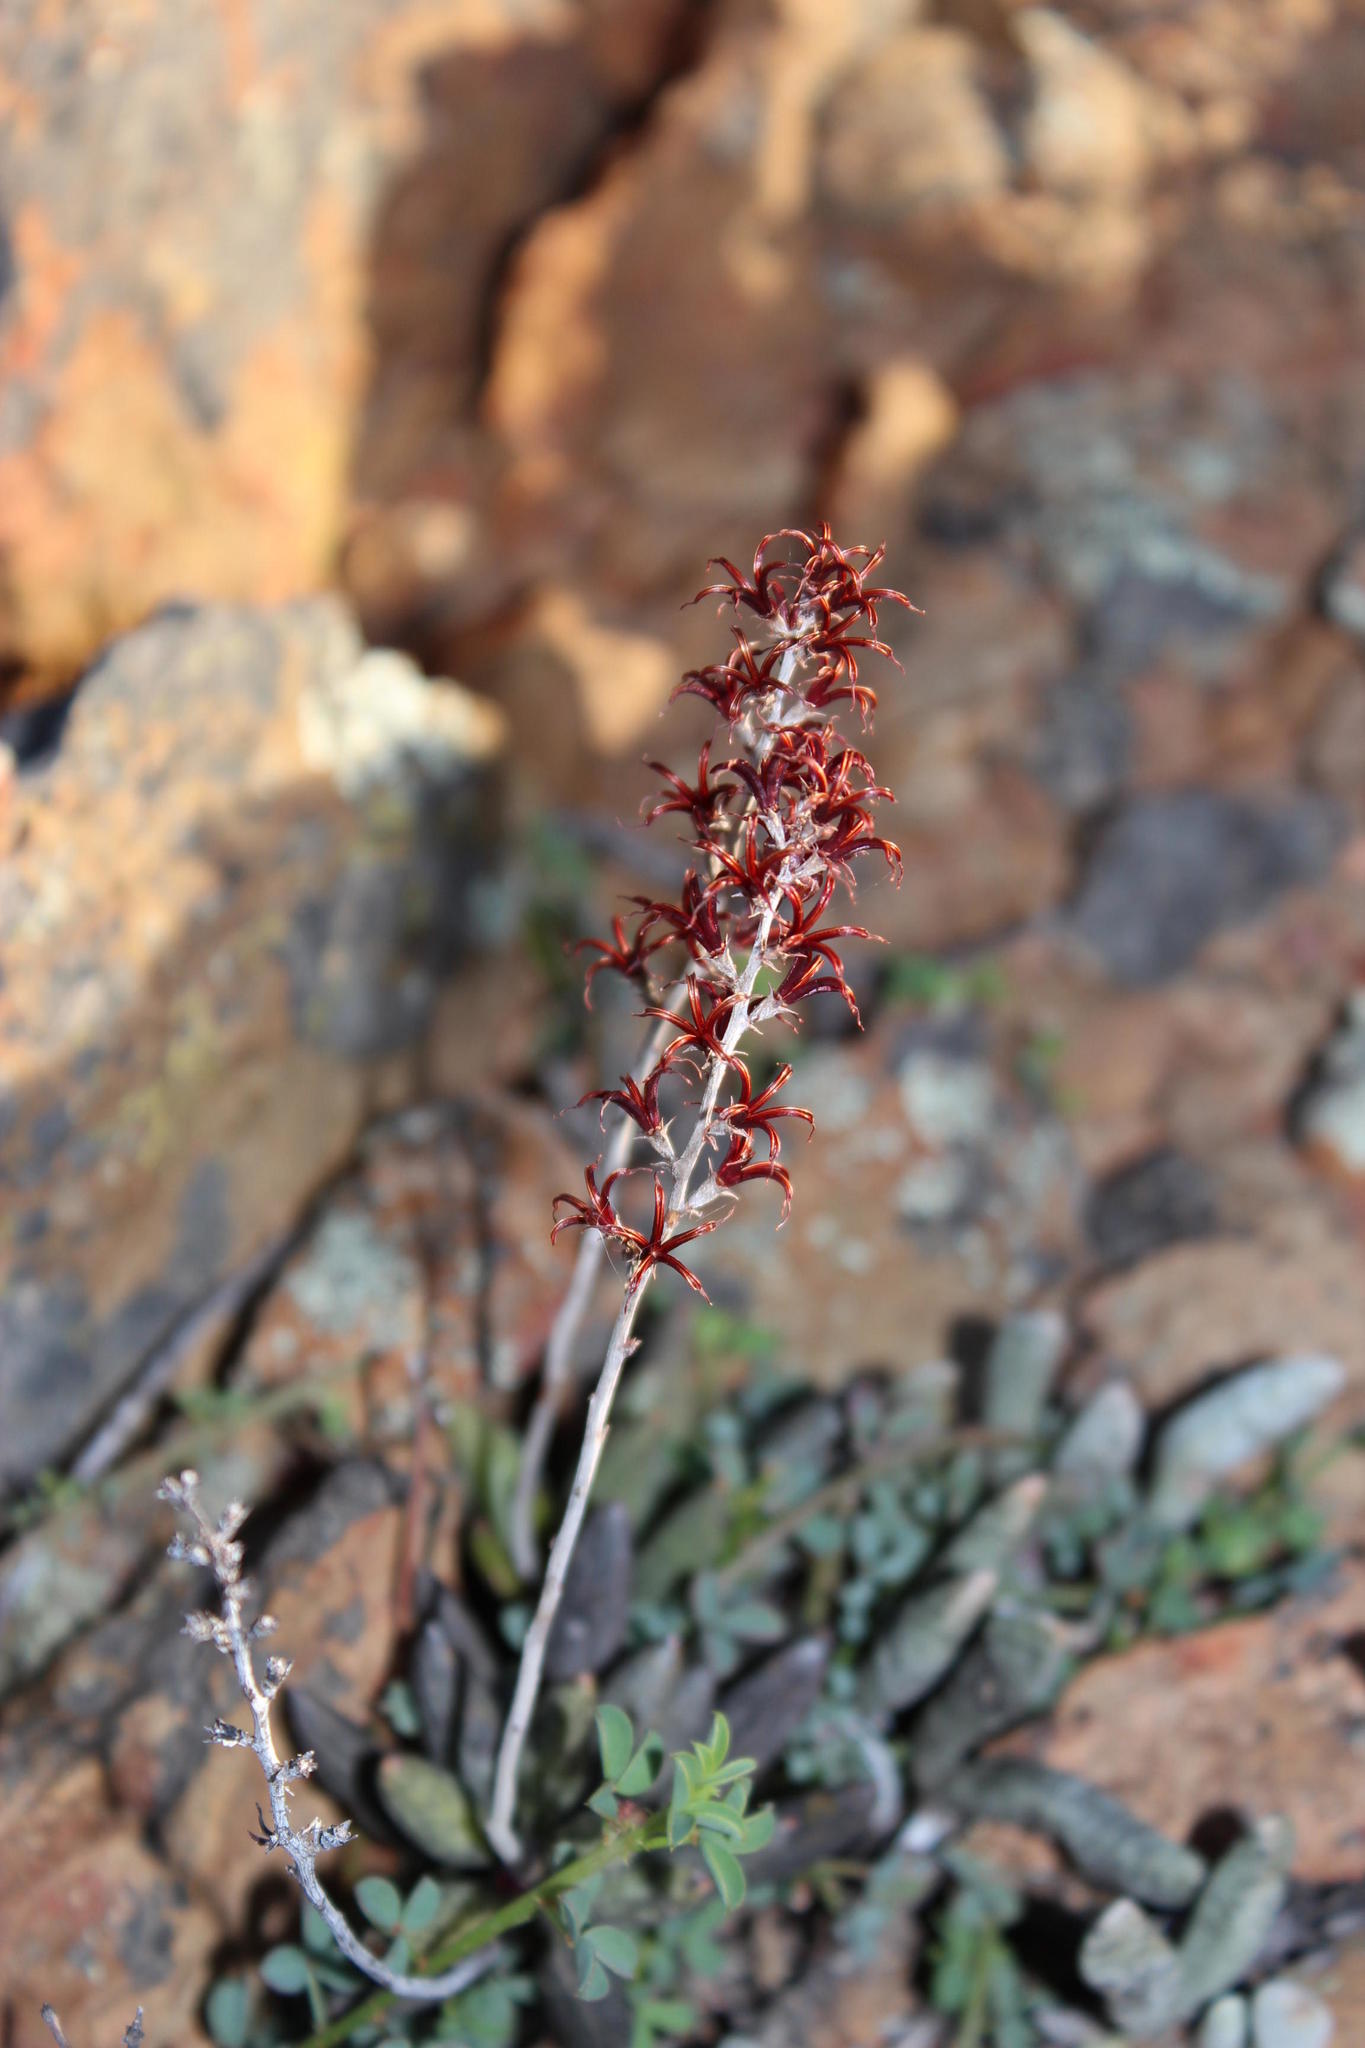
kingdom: Plantae
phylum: Tracheophyta
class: Magnoliopsida
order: Saxifragales
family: Crassulaceae
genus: Adromischus
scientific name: Adromischus filicaulis
